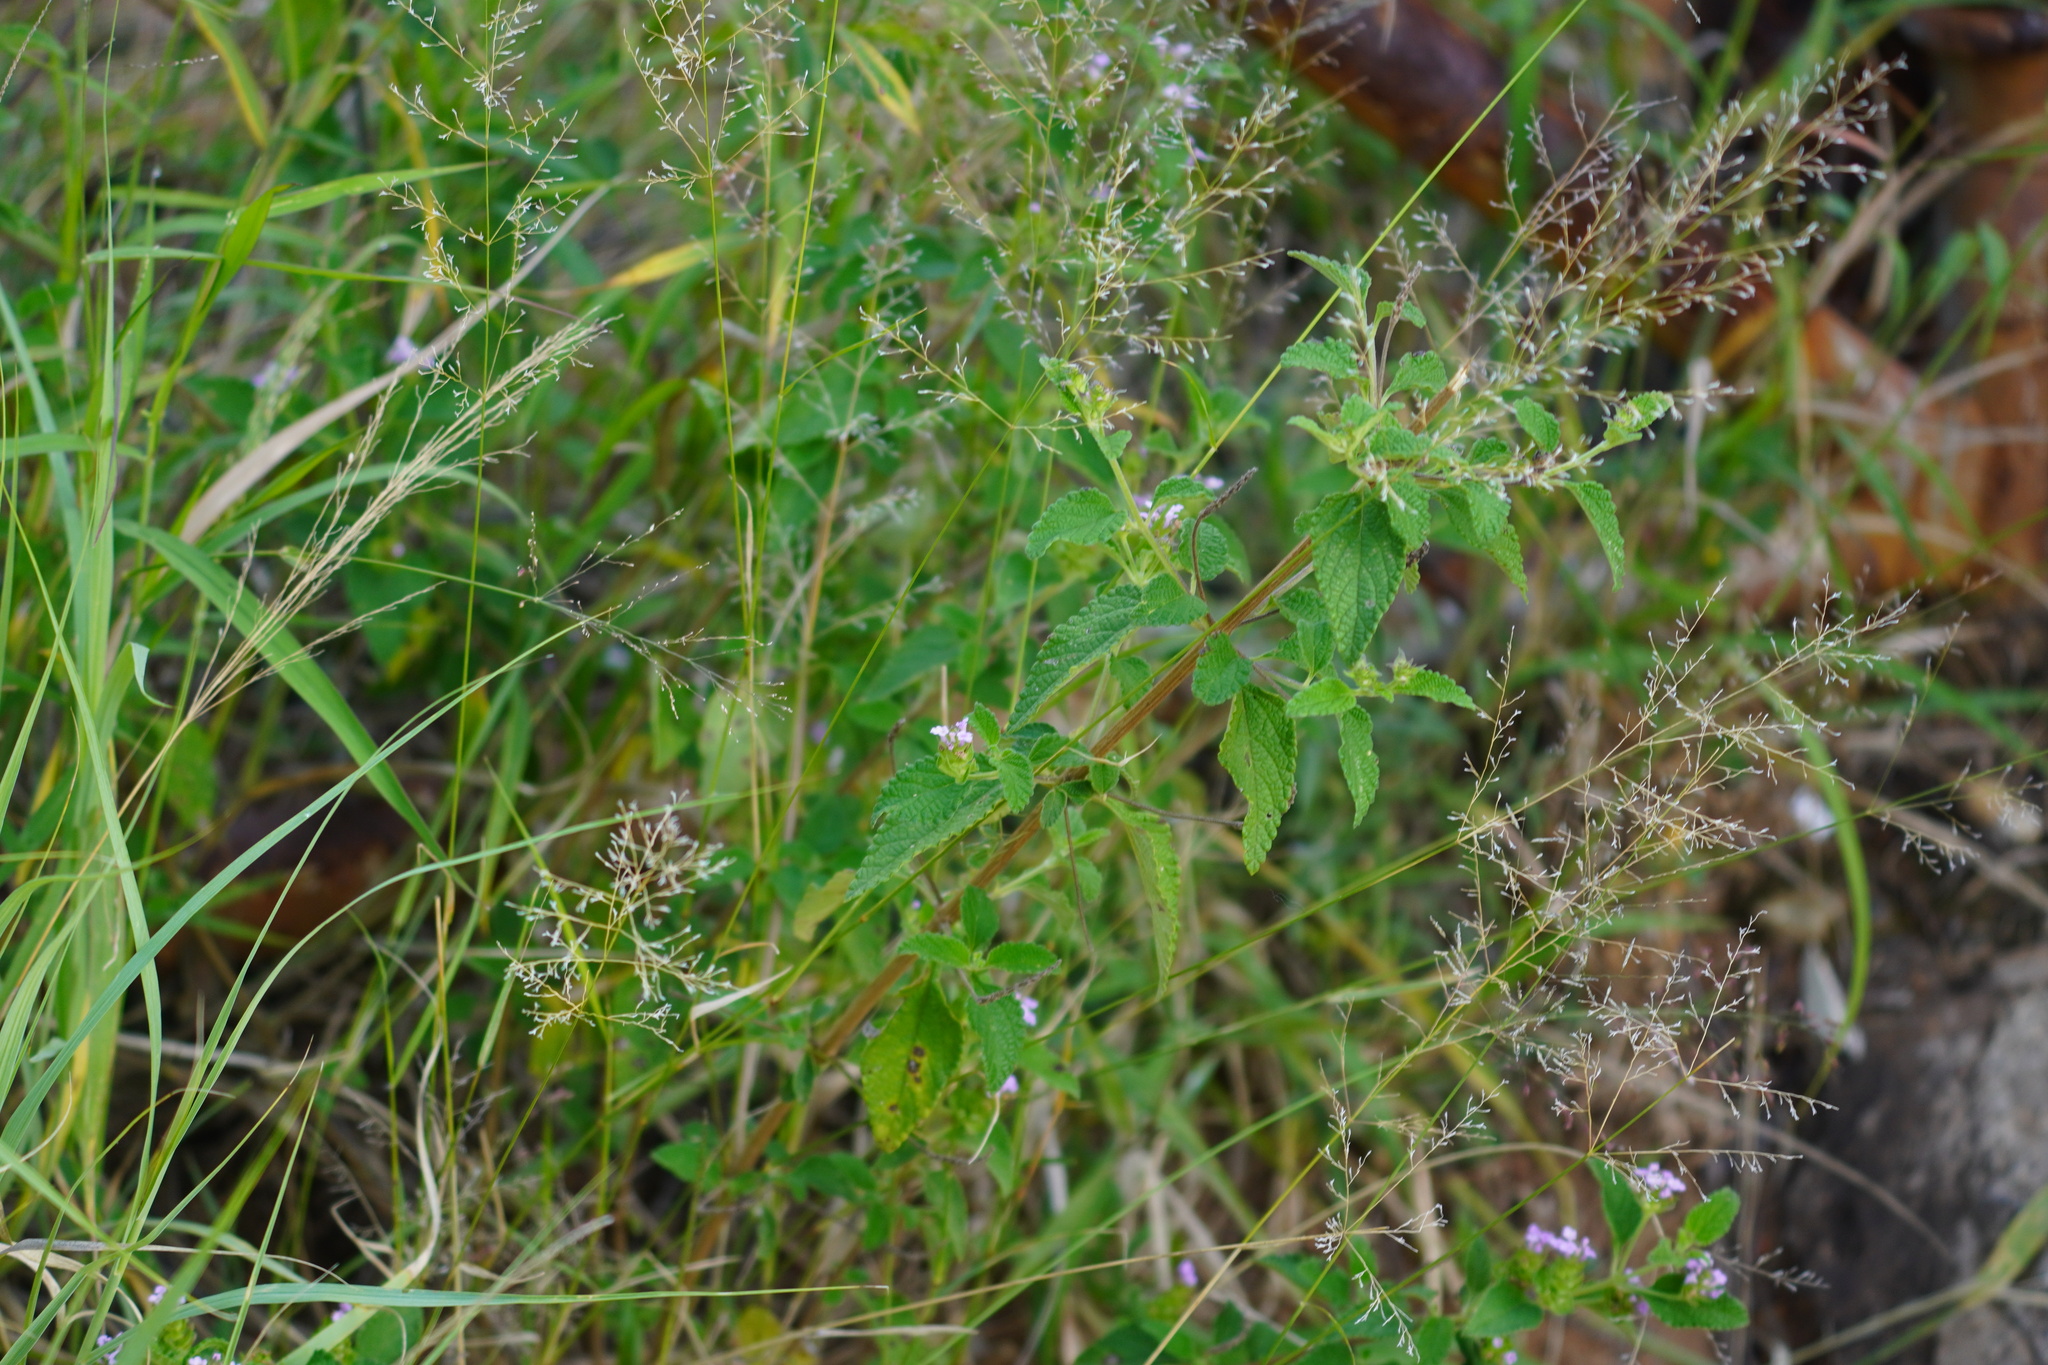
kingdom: Plantae
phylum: Tracheophyta
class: Magnoliopsida
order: Lamiales
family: Verbenaceae
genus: Lantana
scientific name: Lantana rugosa
